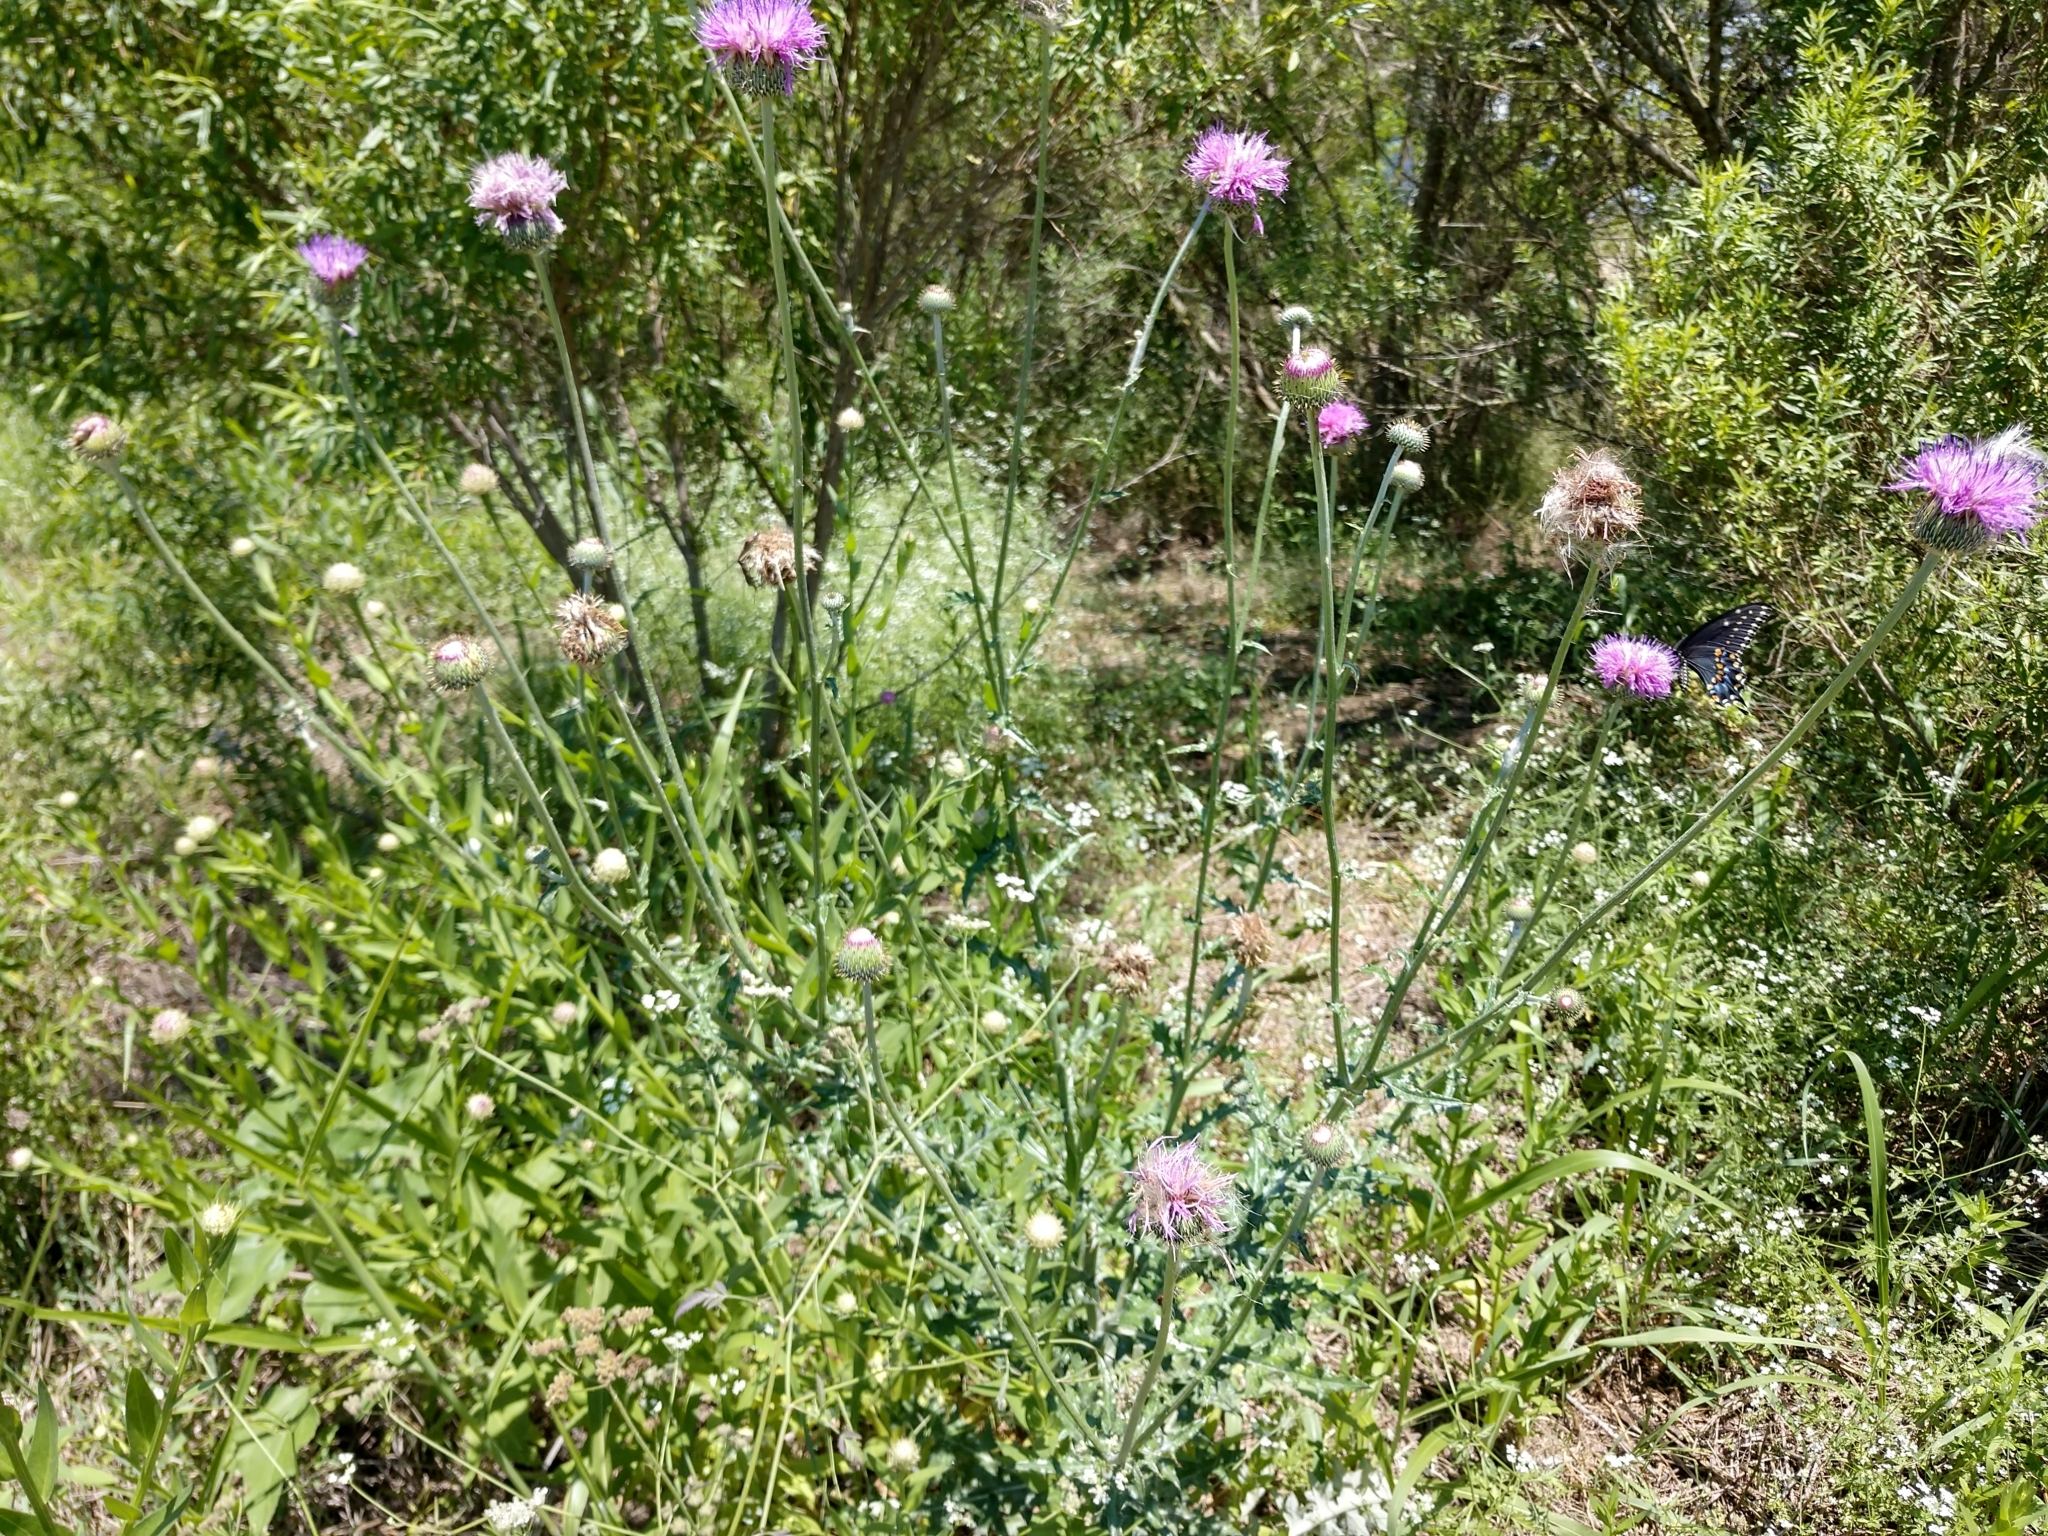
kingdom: Plantae
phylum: Tracheophyta
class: Magnoliopsida
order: Asterales
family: Asteraceae
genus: Cirsium
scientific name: Cirsium texanum
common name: Texas purple thistle
